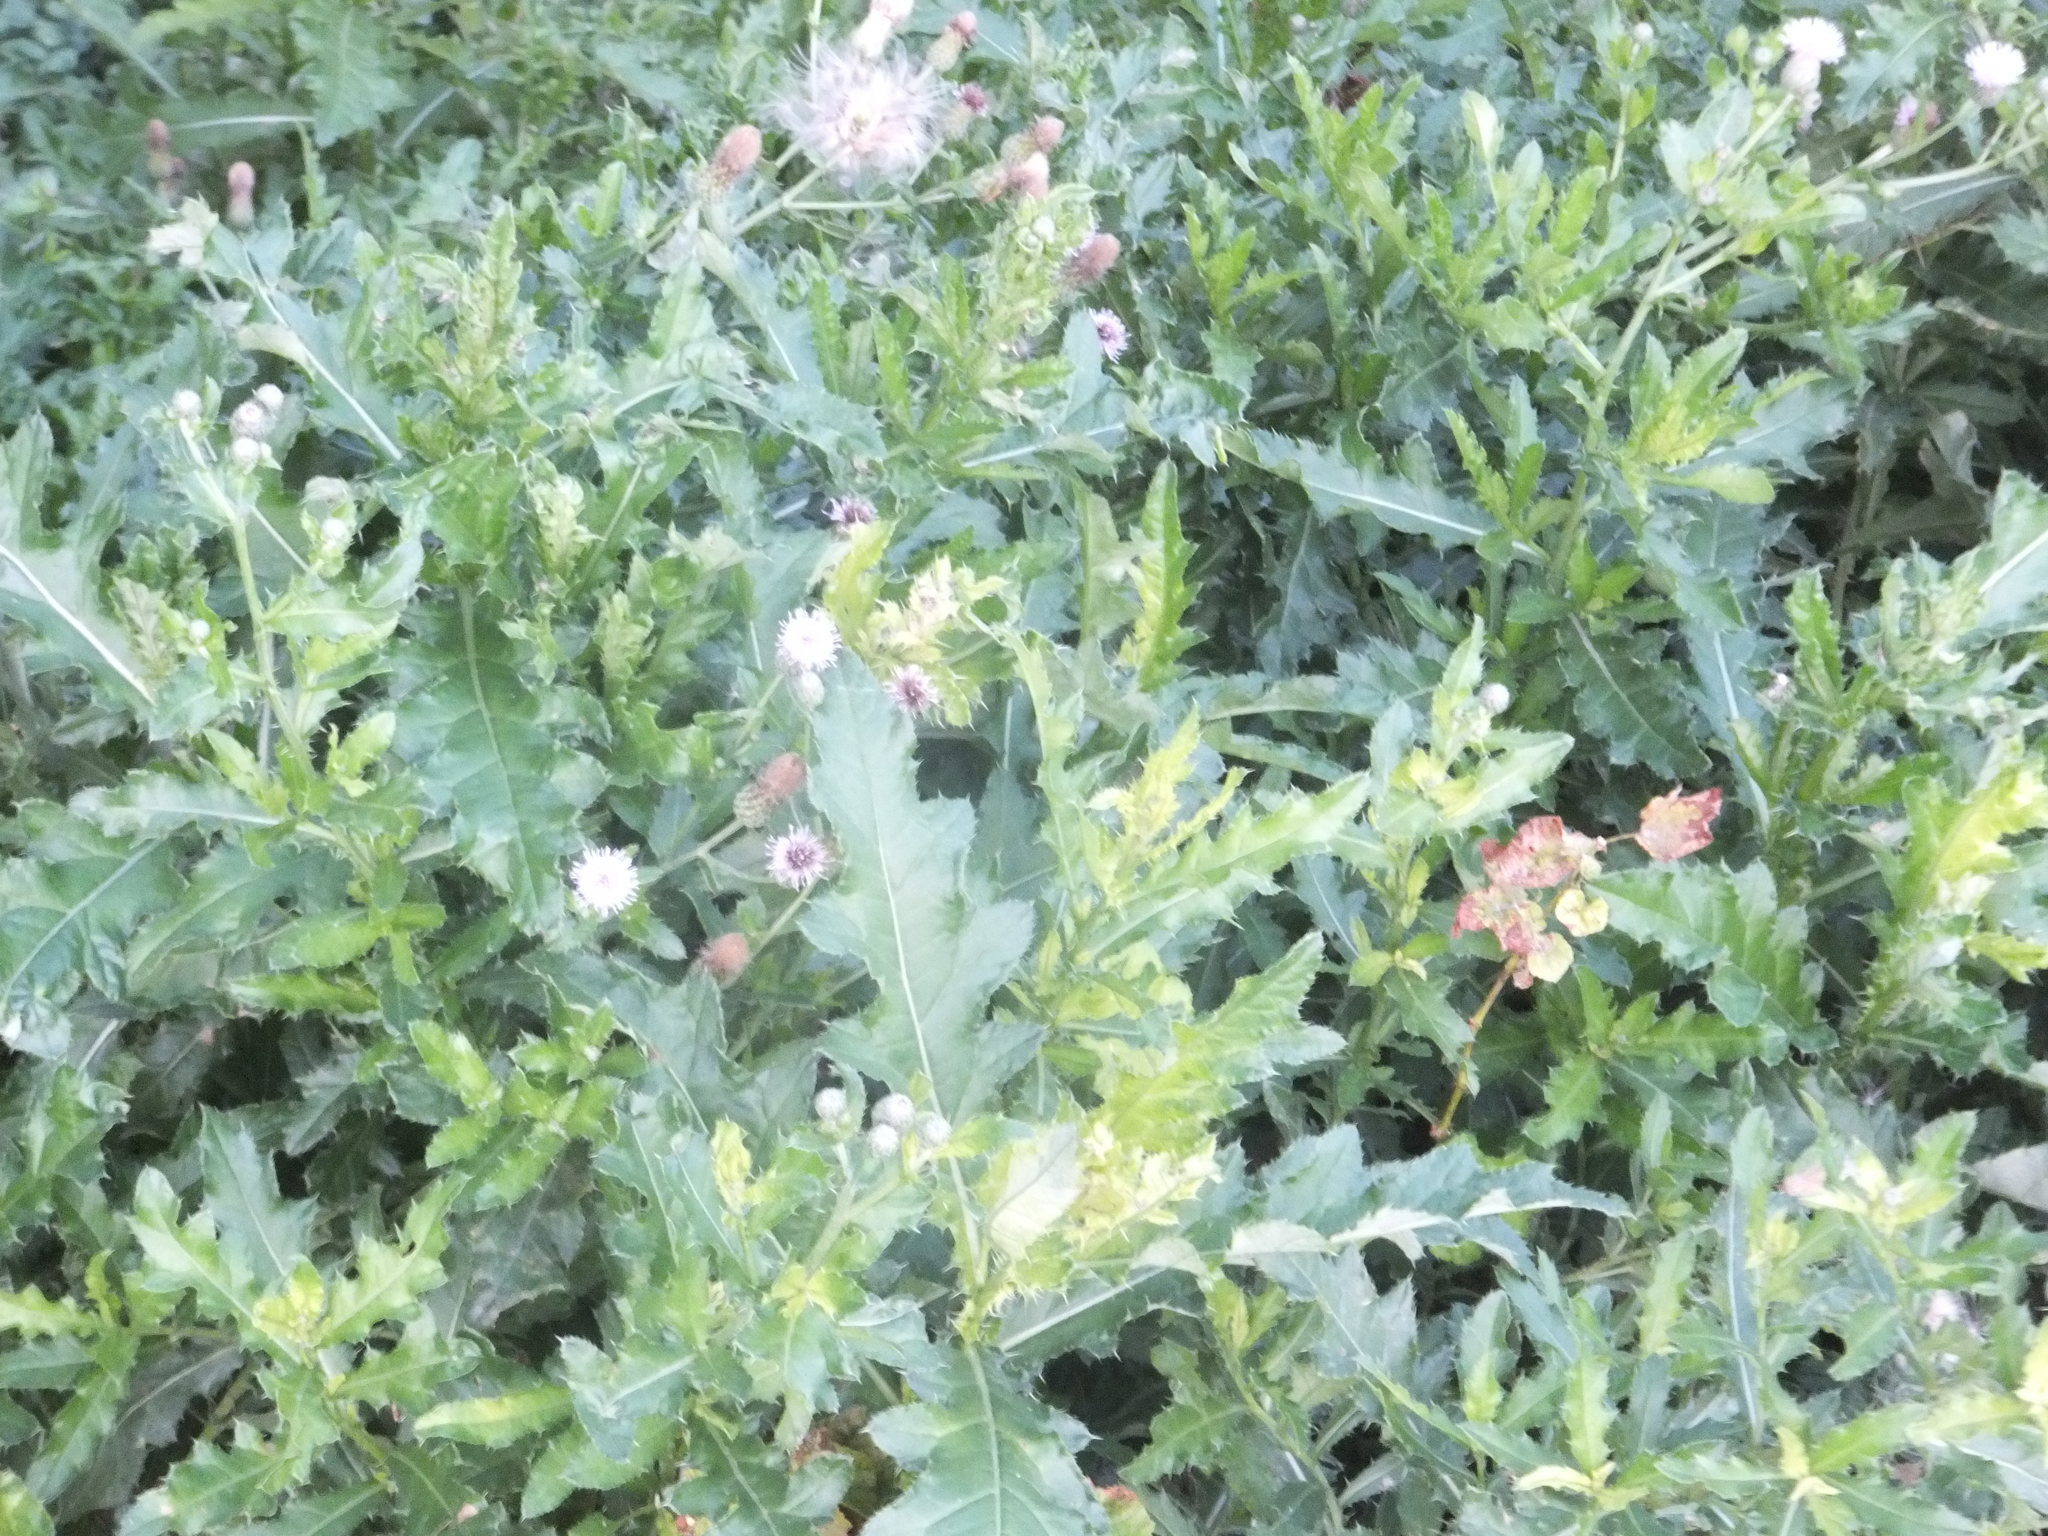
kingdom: Plantae
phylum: Tracheophyta
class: Magnoliopsida
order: Asterales
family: Asteraceae
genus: Cirsium
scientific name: Cirsium arvense
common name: Creeping thistle
